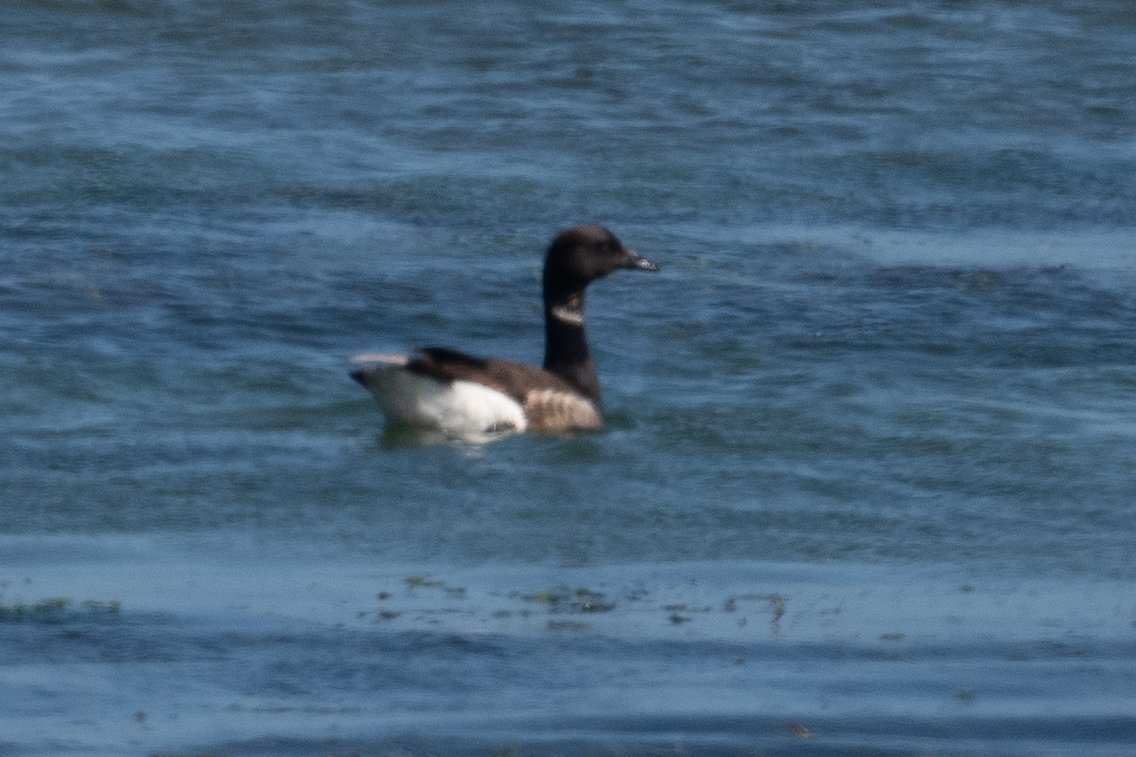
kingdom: Animalia
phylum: Chordata
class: Aves
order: Anseriformes
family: Anatidae
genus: Branta
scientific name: Branta bernicla
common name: Brant goose
